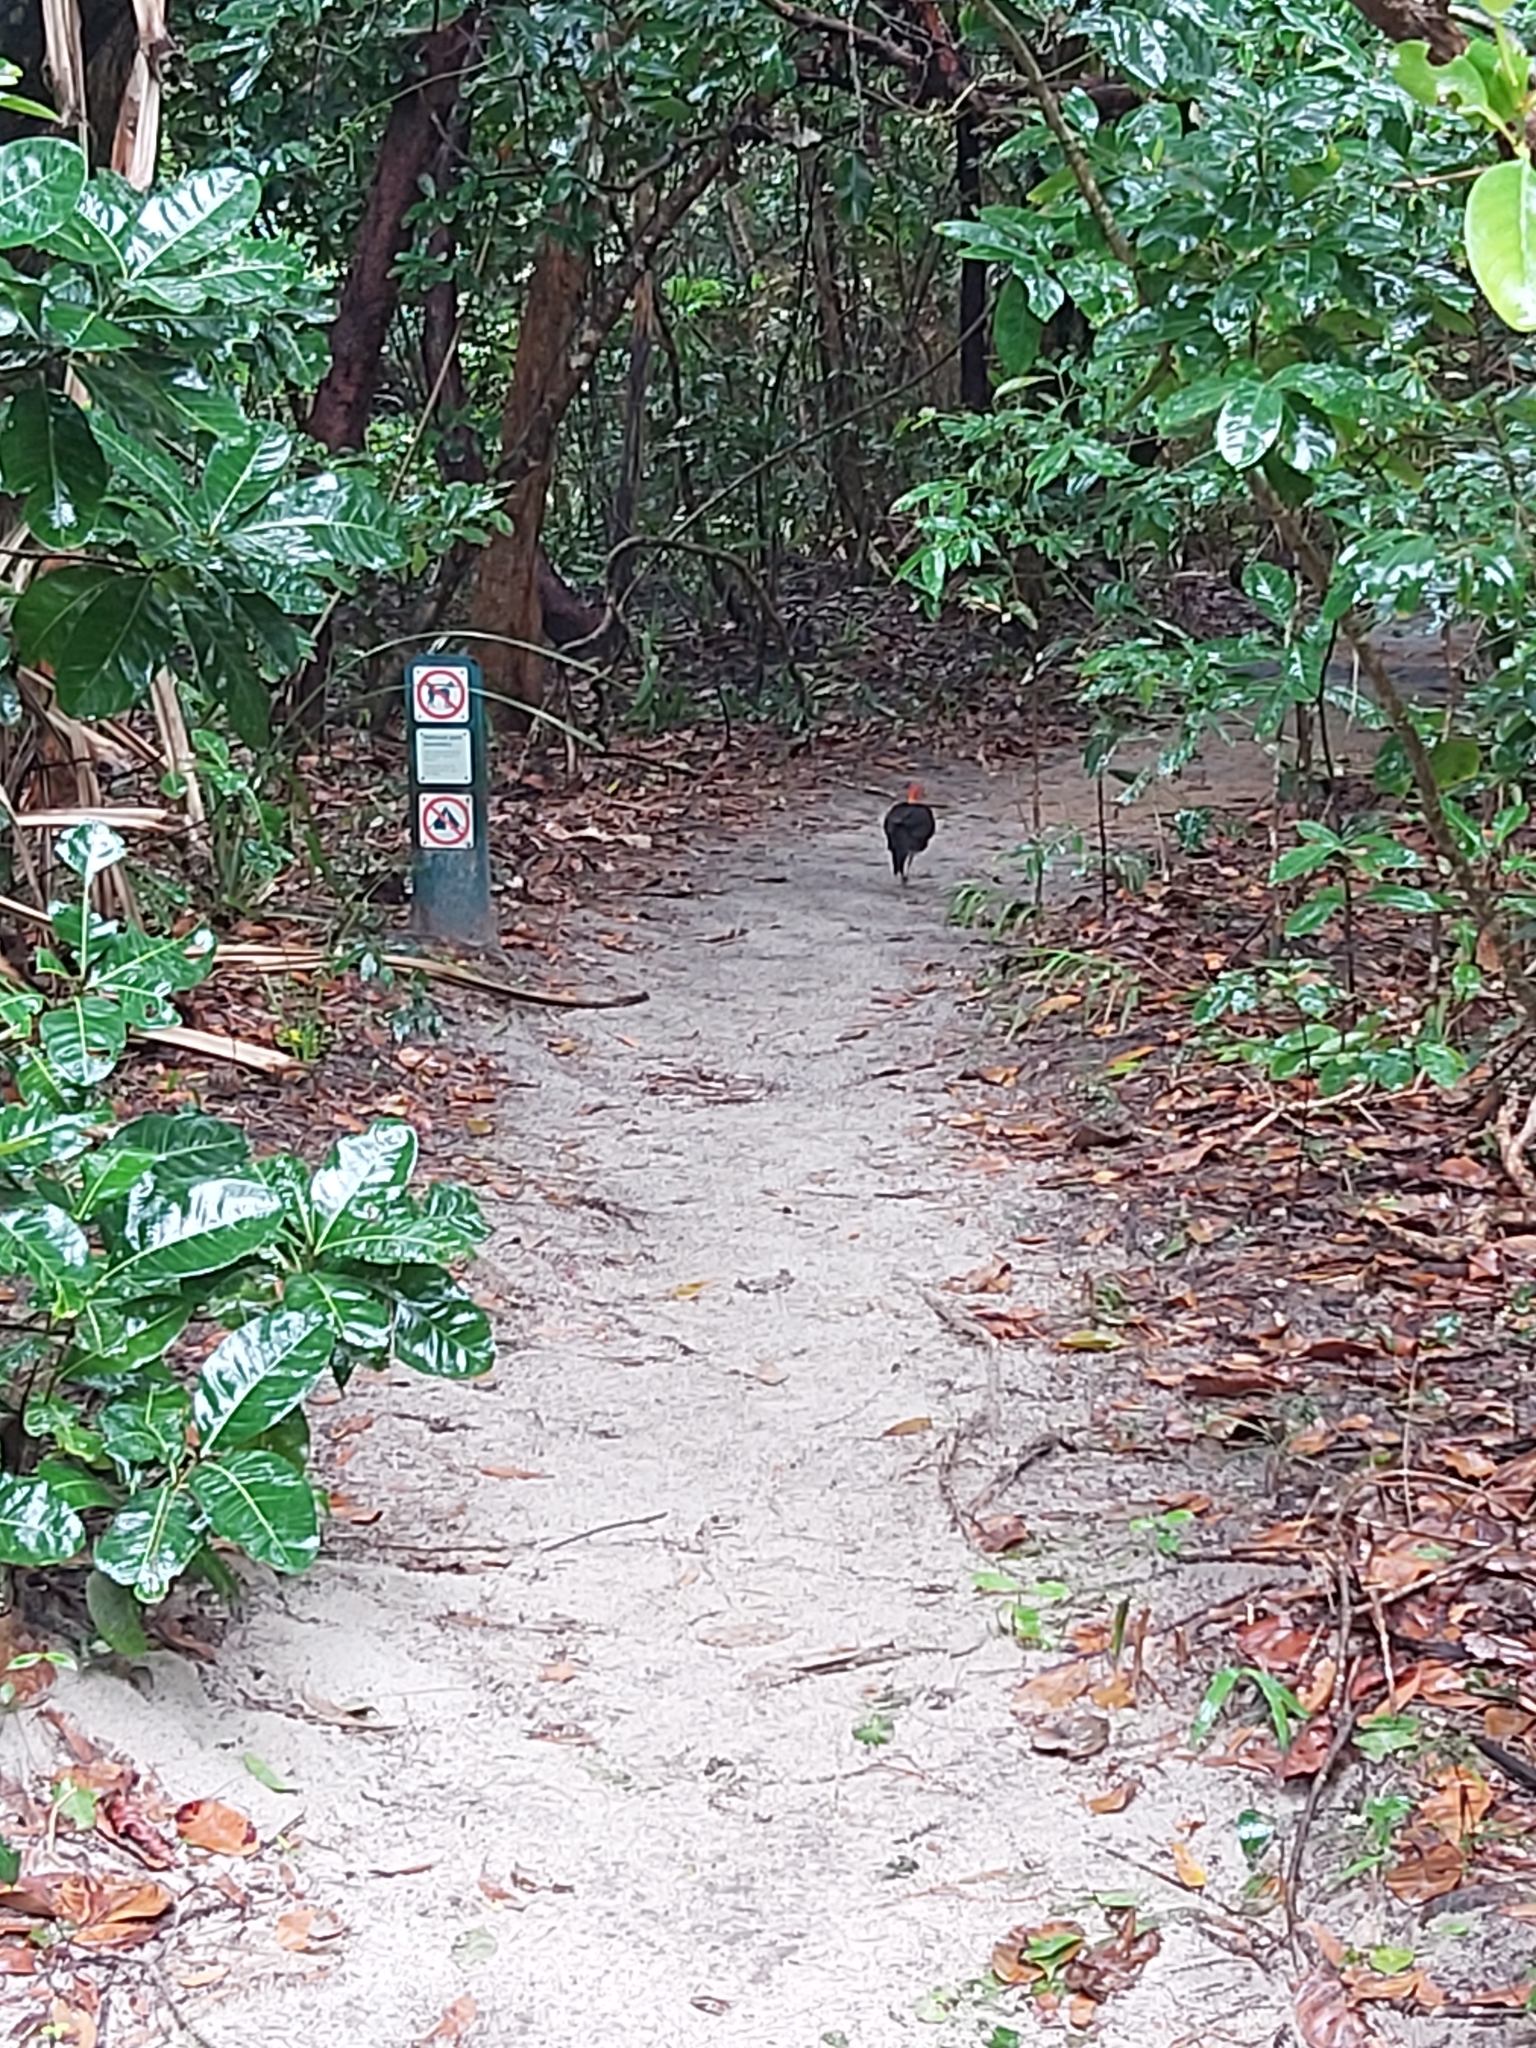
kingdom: Animalia
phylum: Chordata
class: Aves
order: Galliformes
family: Megapodiidae
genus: Alectura
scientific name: Alectura lathami
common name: Australian brushturkey
